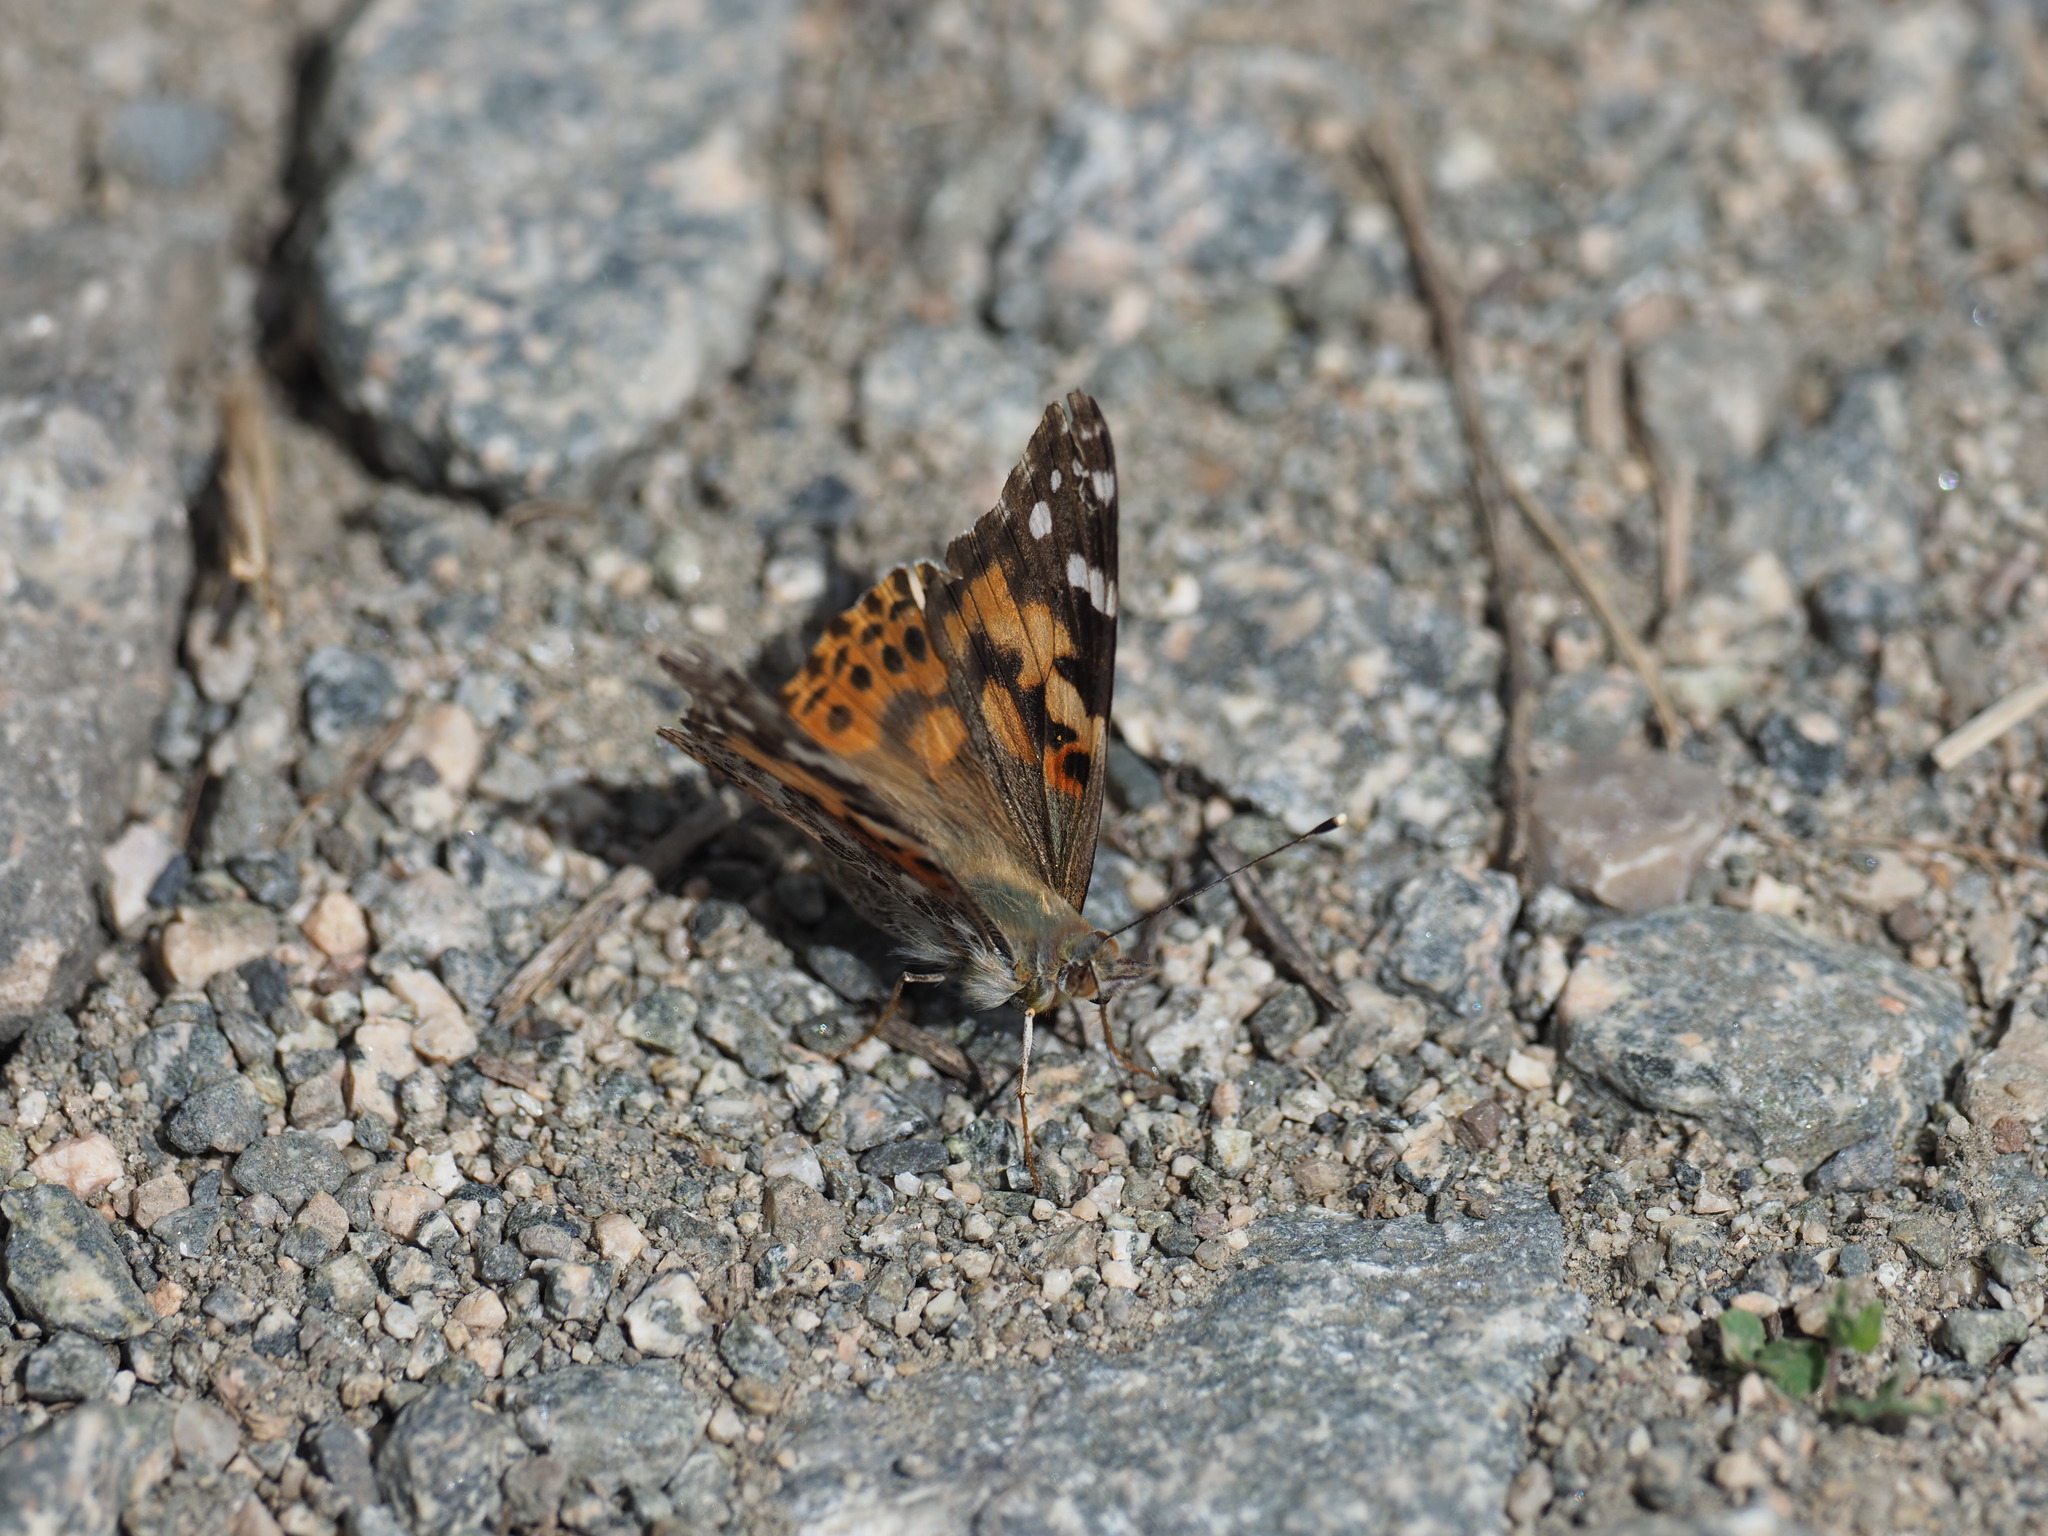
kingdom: Animalia
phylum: Arthropoda
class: Insecta
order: Lepidoptera
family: Nymphalidae
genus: Vanessa
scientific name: Vanessa cardui
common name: Painted lady
